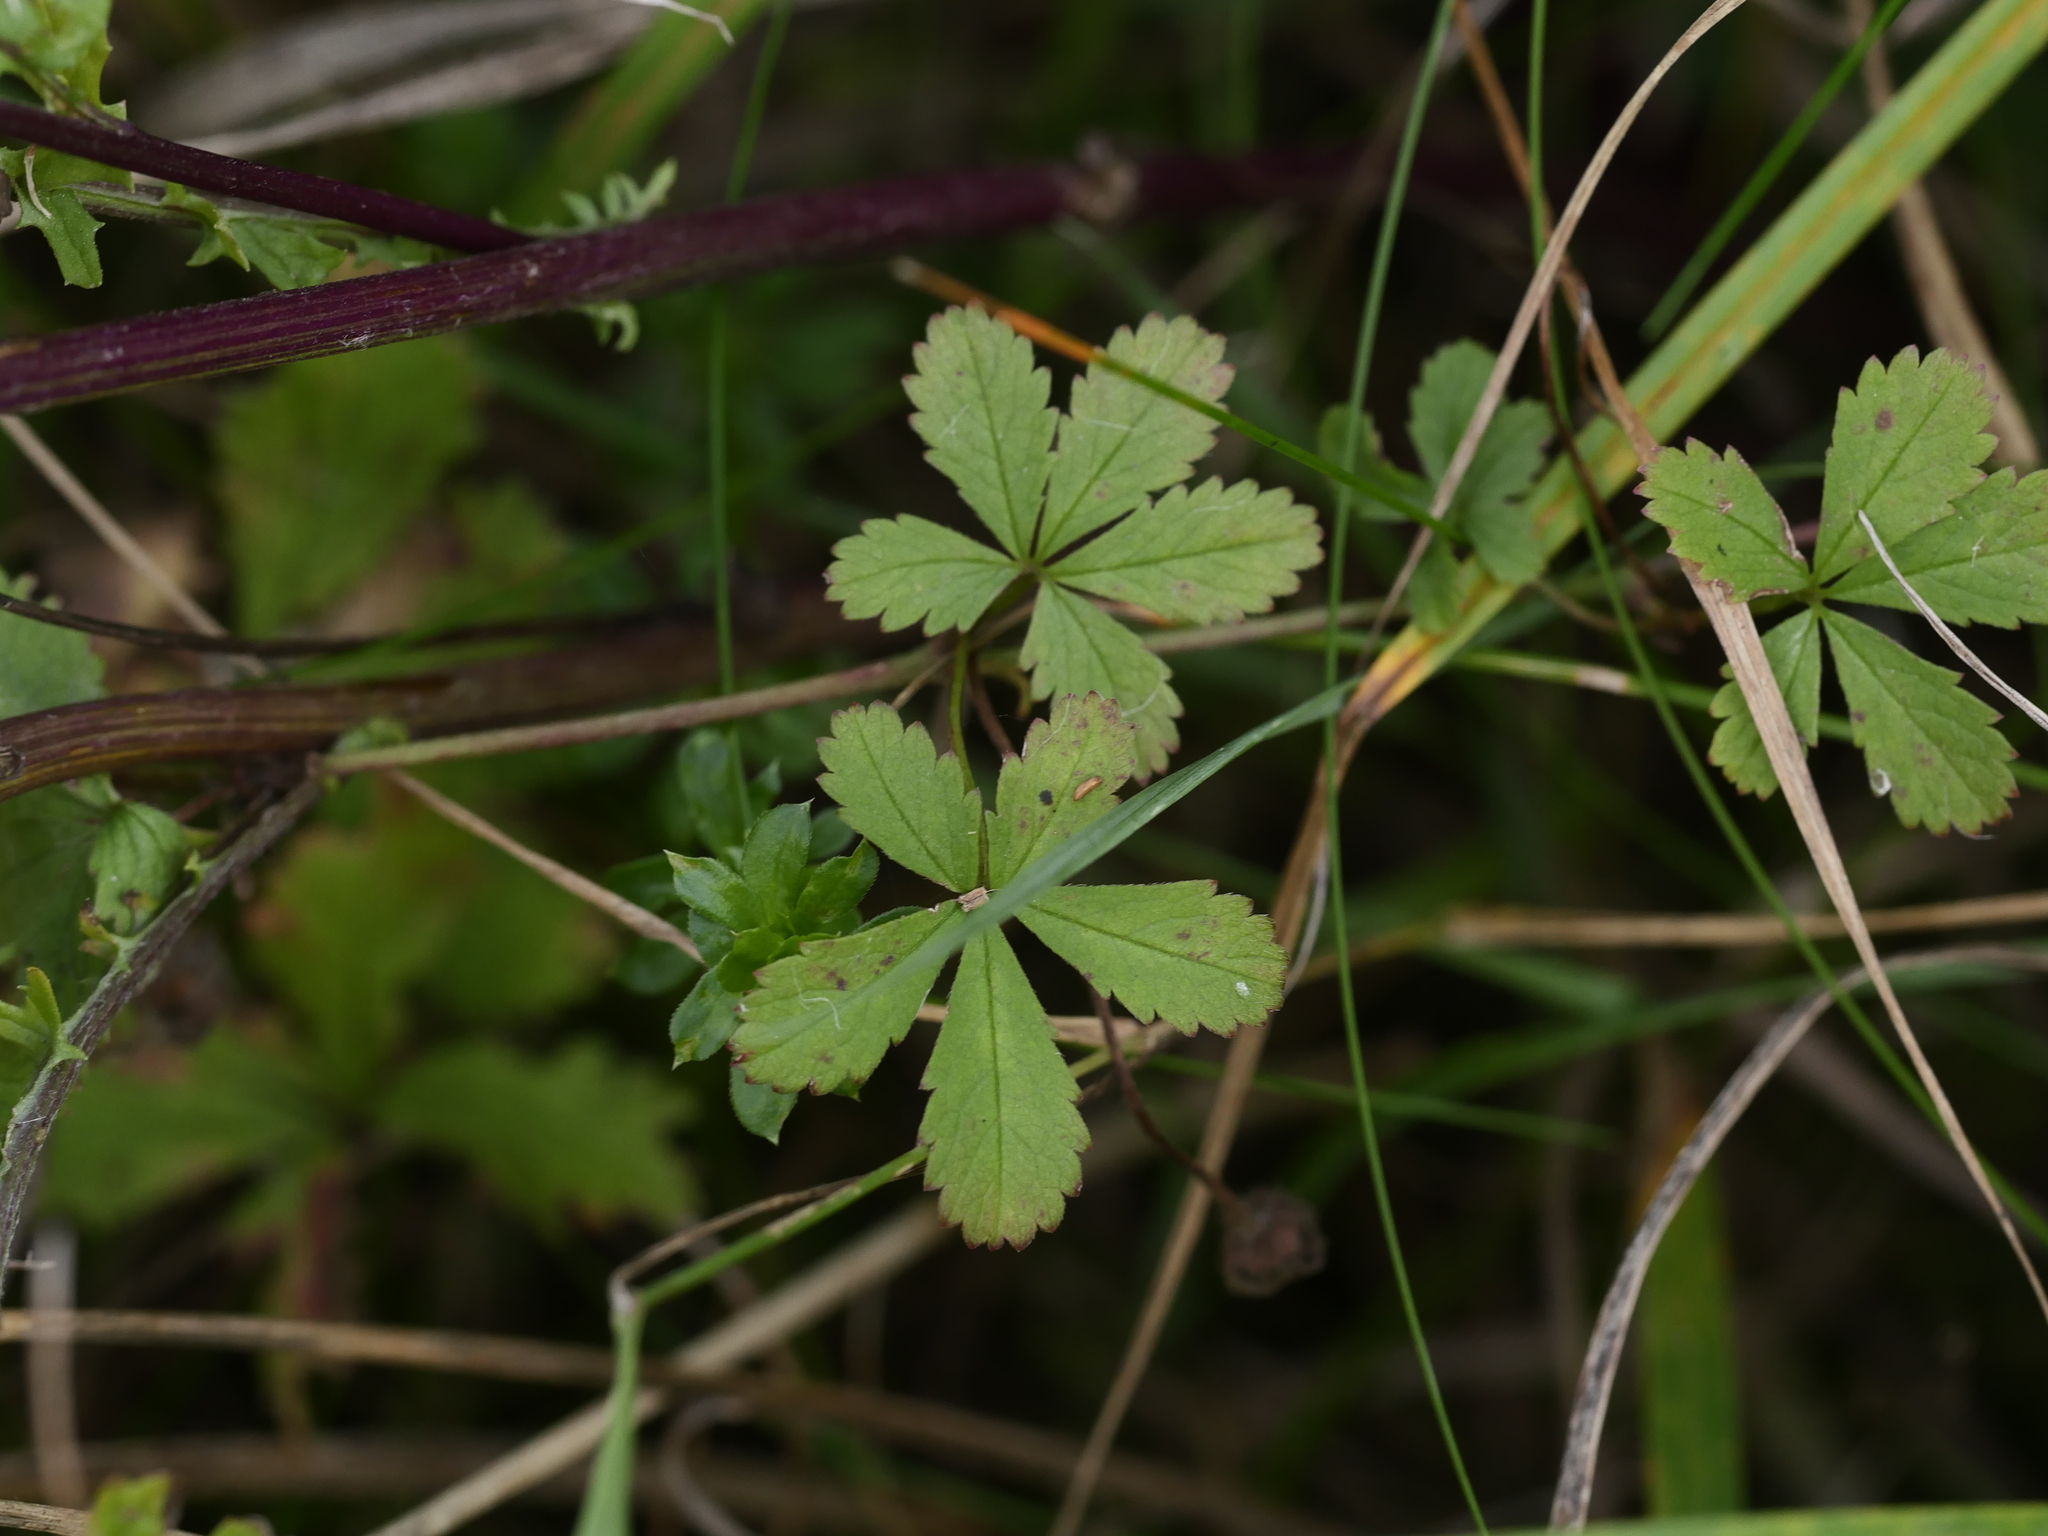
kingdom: Plantae
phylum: Tracheophyta
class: Magnoliopsida
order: Rosales
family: Rosaceae
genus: Potentilla
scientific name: Potentilla reptans
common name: Creeping cinquefoil
